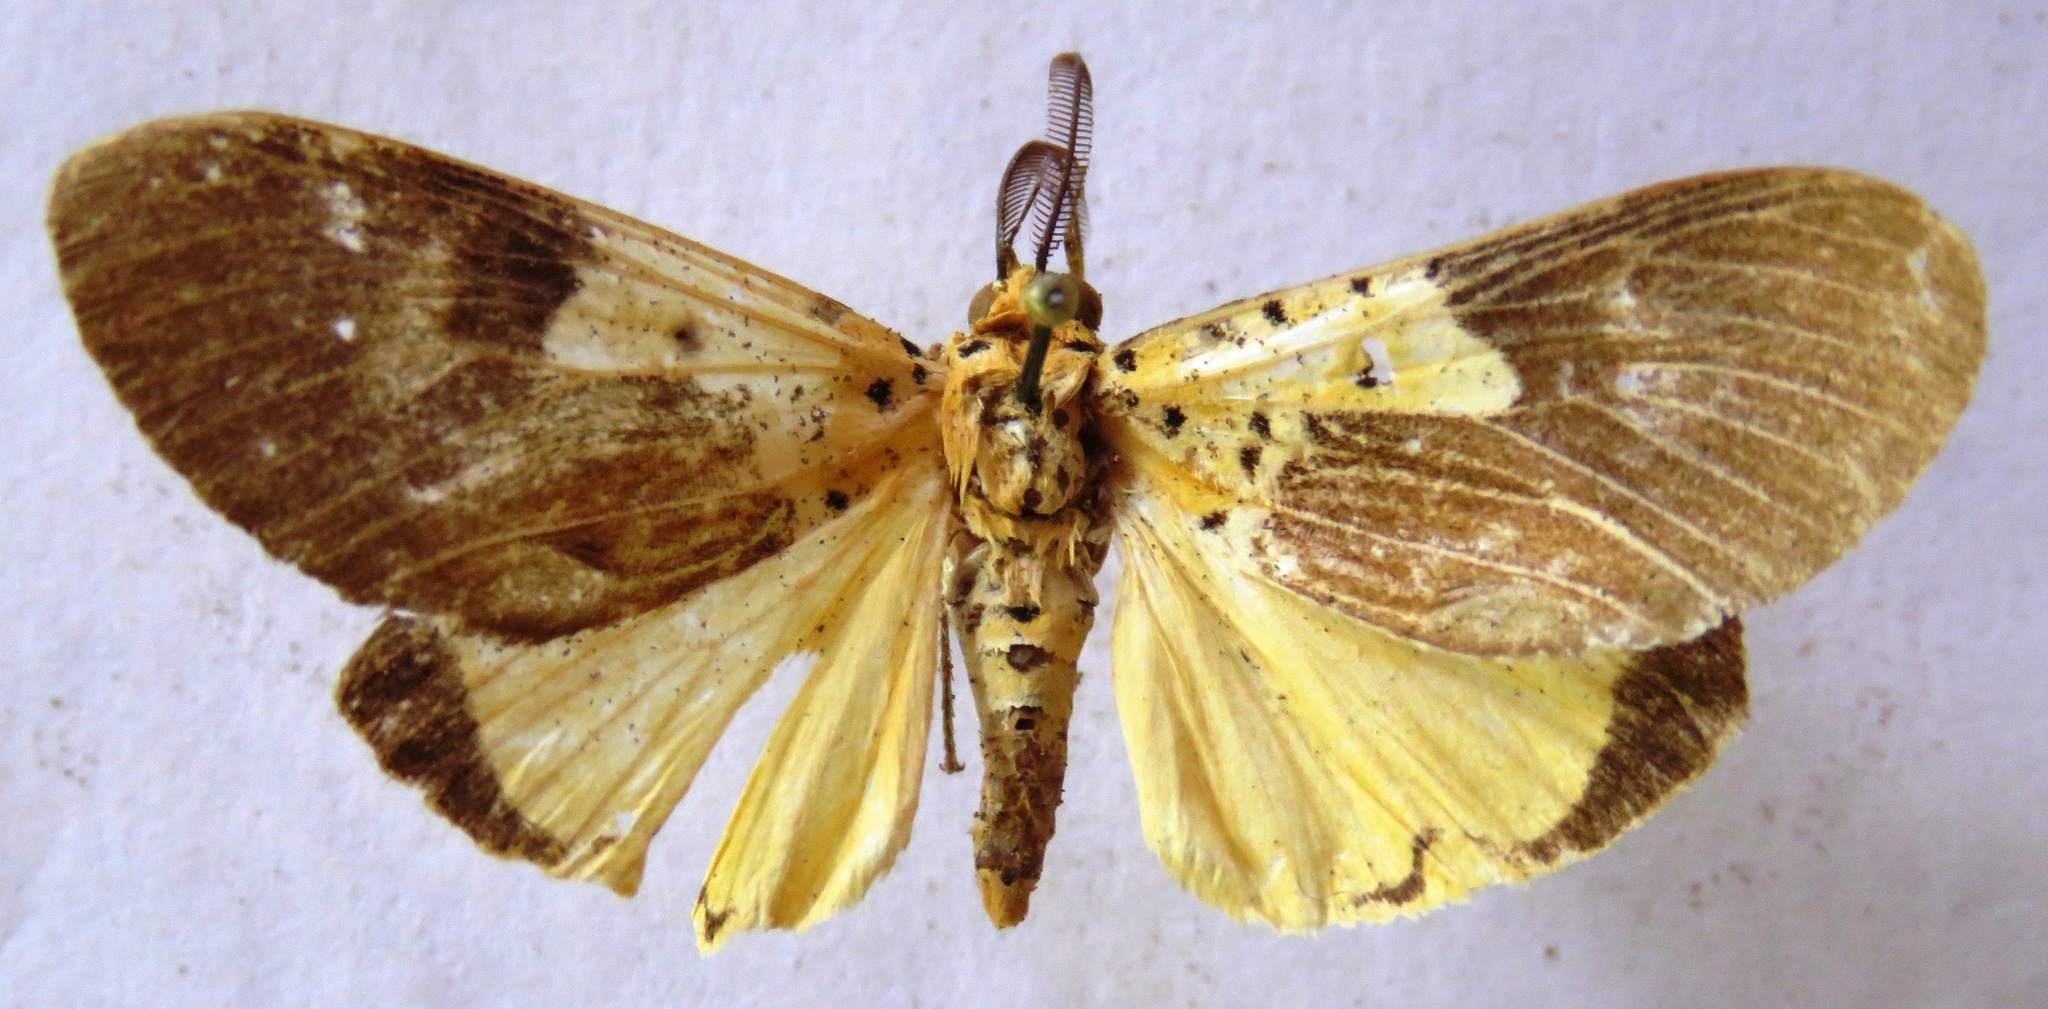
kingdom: Animalia
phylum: Arthropoda
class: Insecta
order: Lepidoptera
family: Erebidae
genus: Asota
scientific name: Asota speciosa
